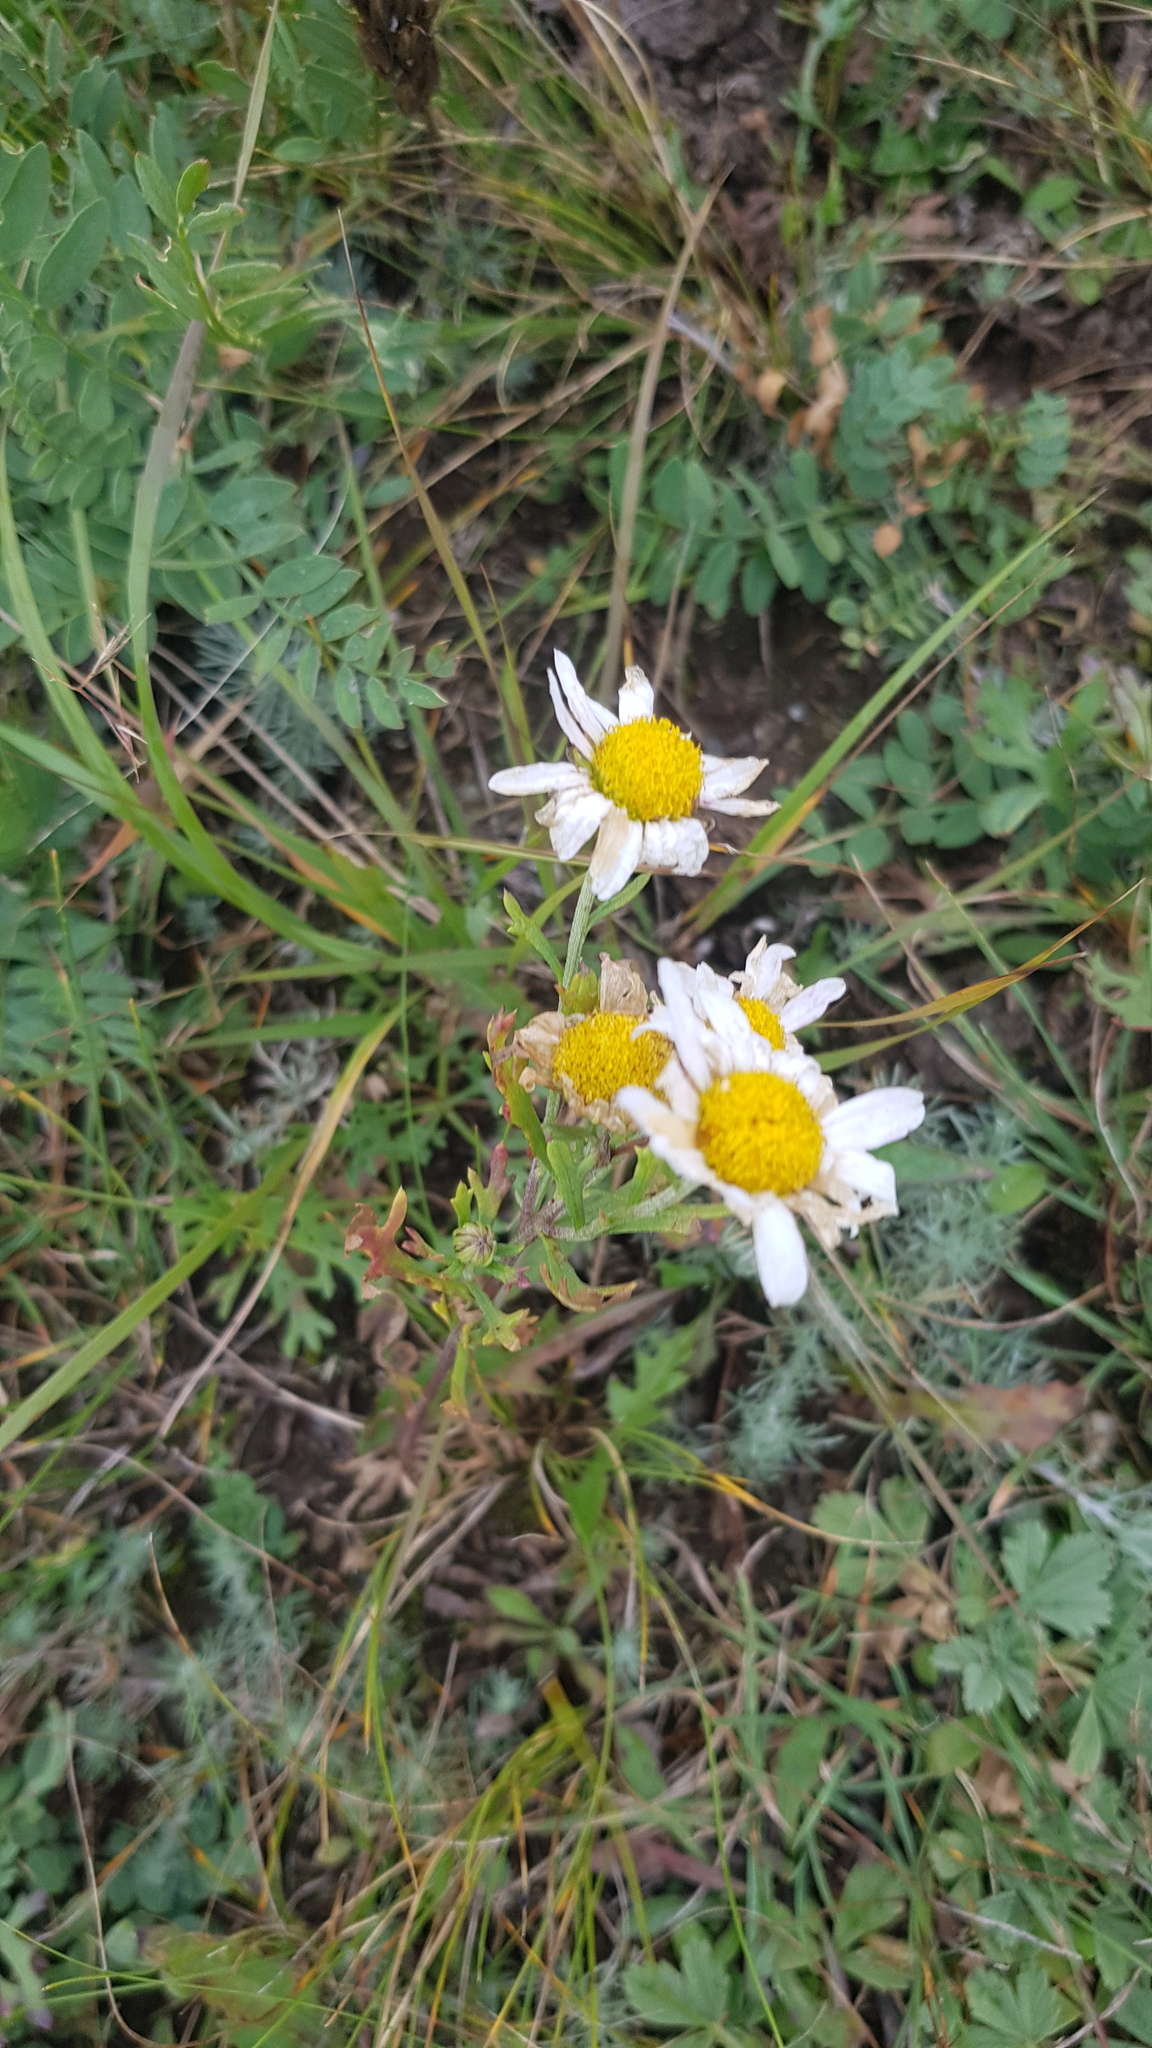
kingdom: Plantae
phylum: Tracheophyta
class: Magnoliopsida
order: Asterales
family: Asteraceae
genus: Chrysanthemum
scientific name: Chrysanthemum zawadzkii
